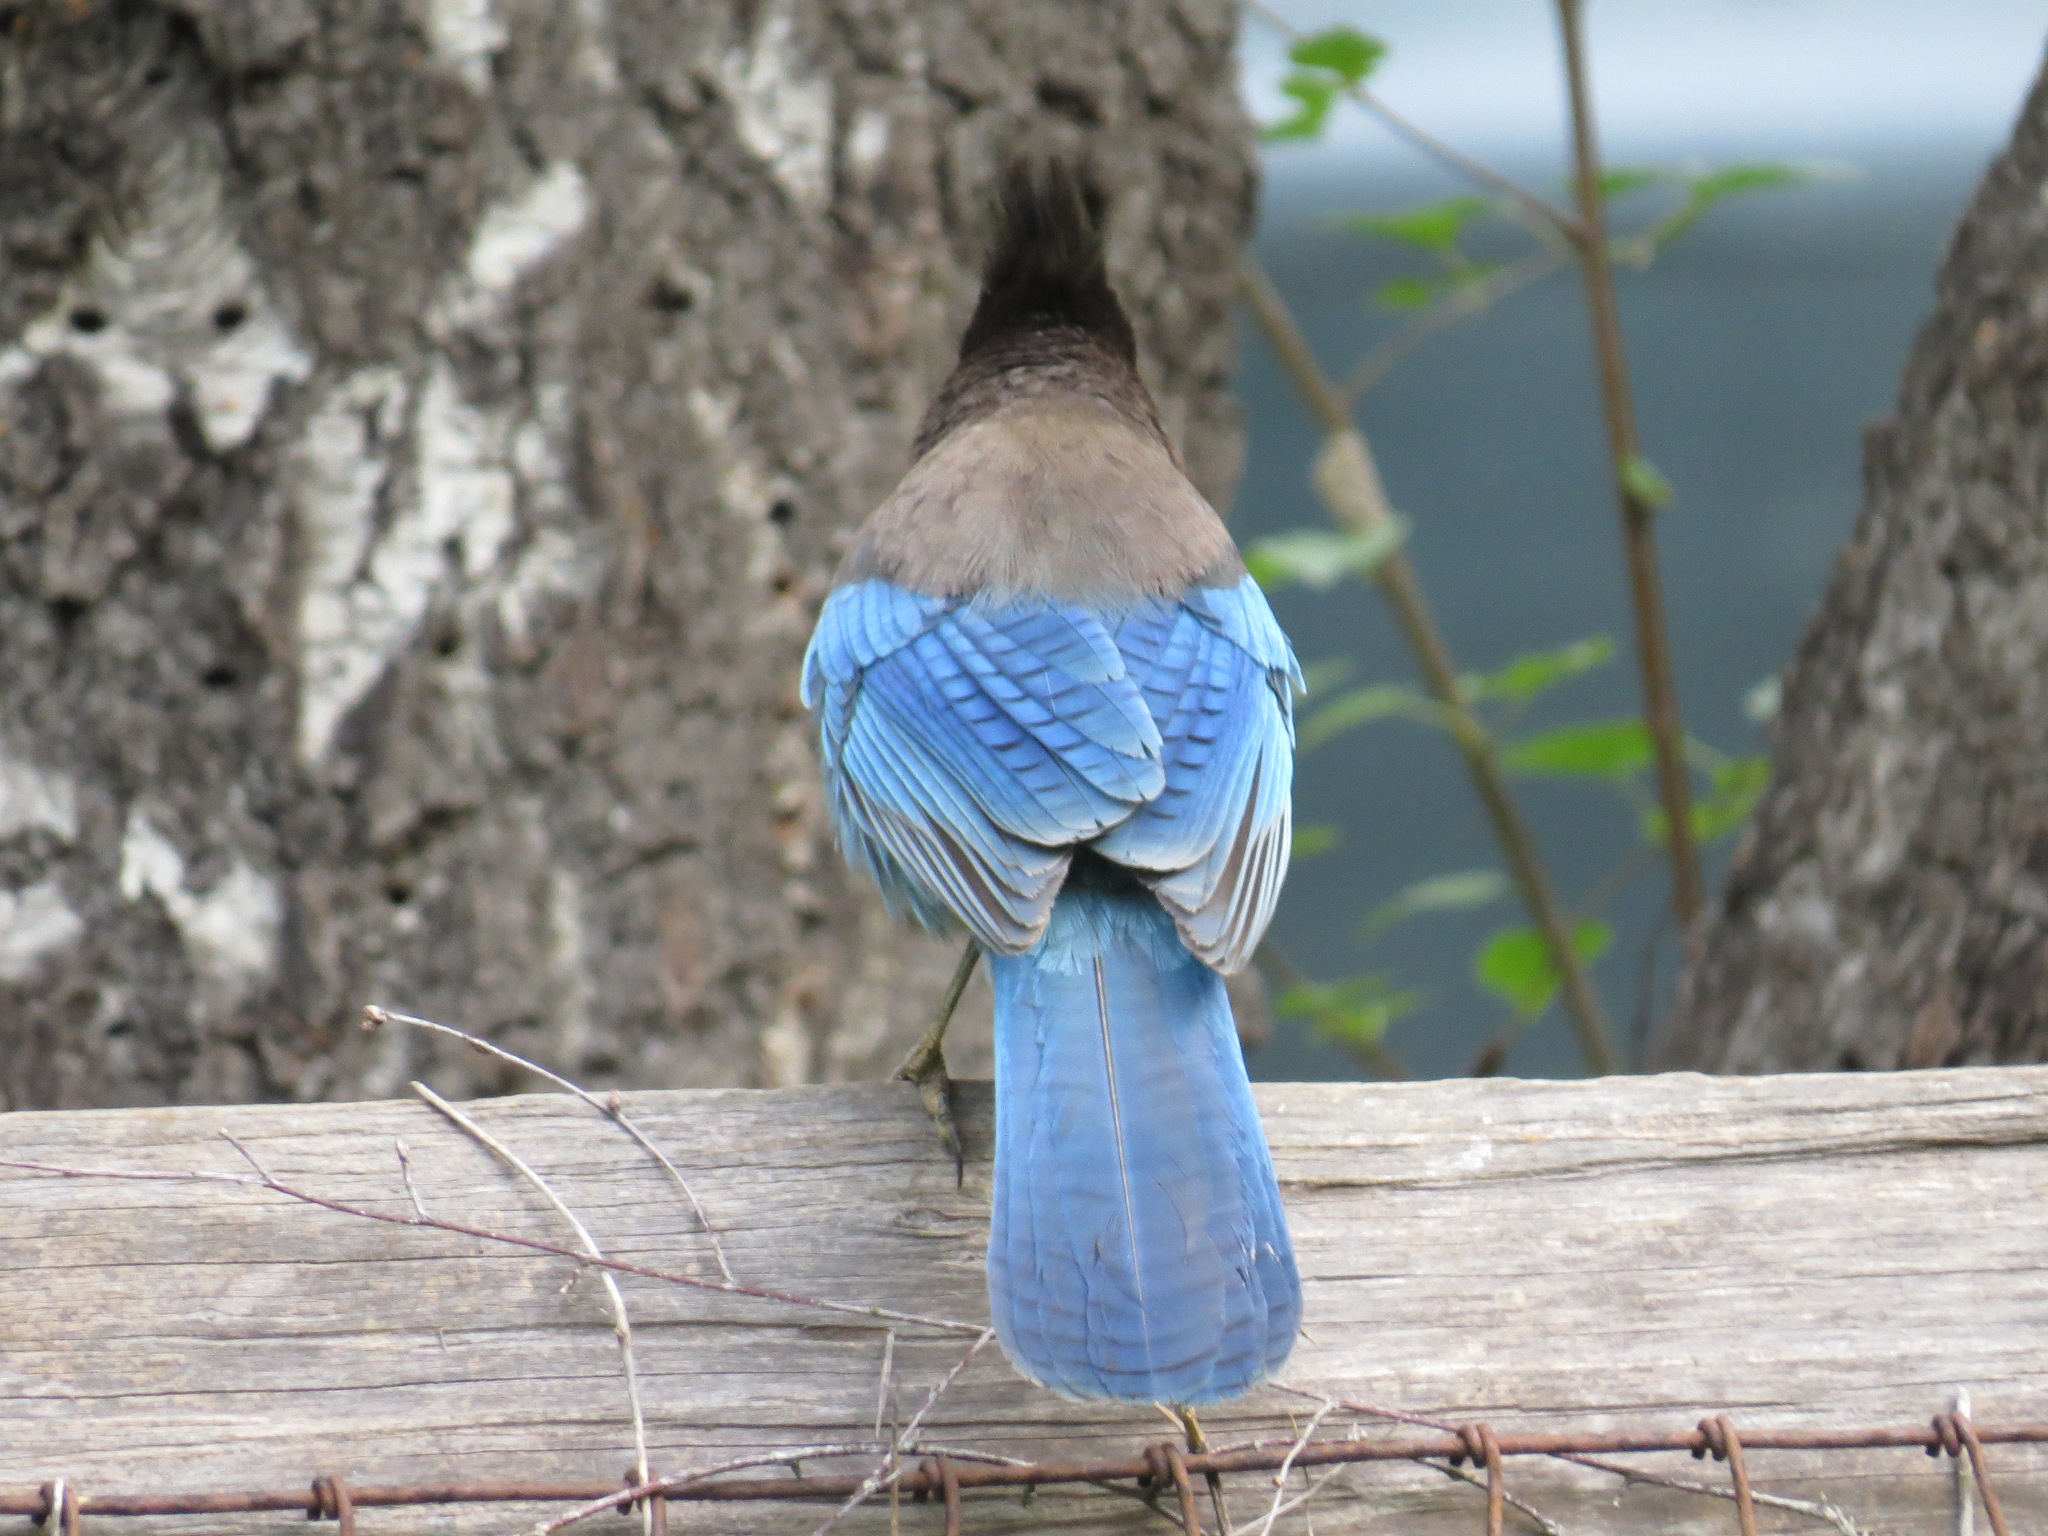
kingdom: Animalia
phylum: Chordata
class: Aves
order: Passeriformes
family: Corvidae
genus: Cyanocitta
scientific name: Cyanocitta stelleri
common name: Steller's jay
